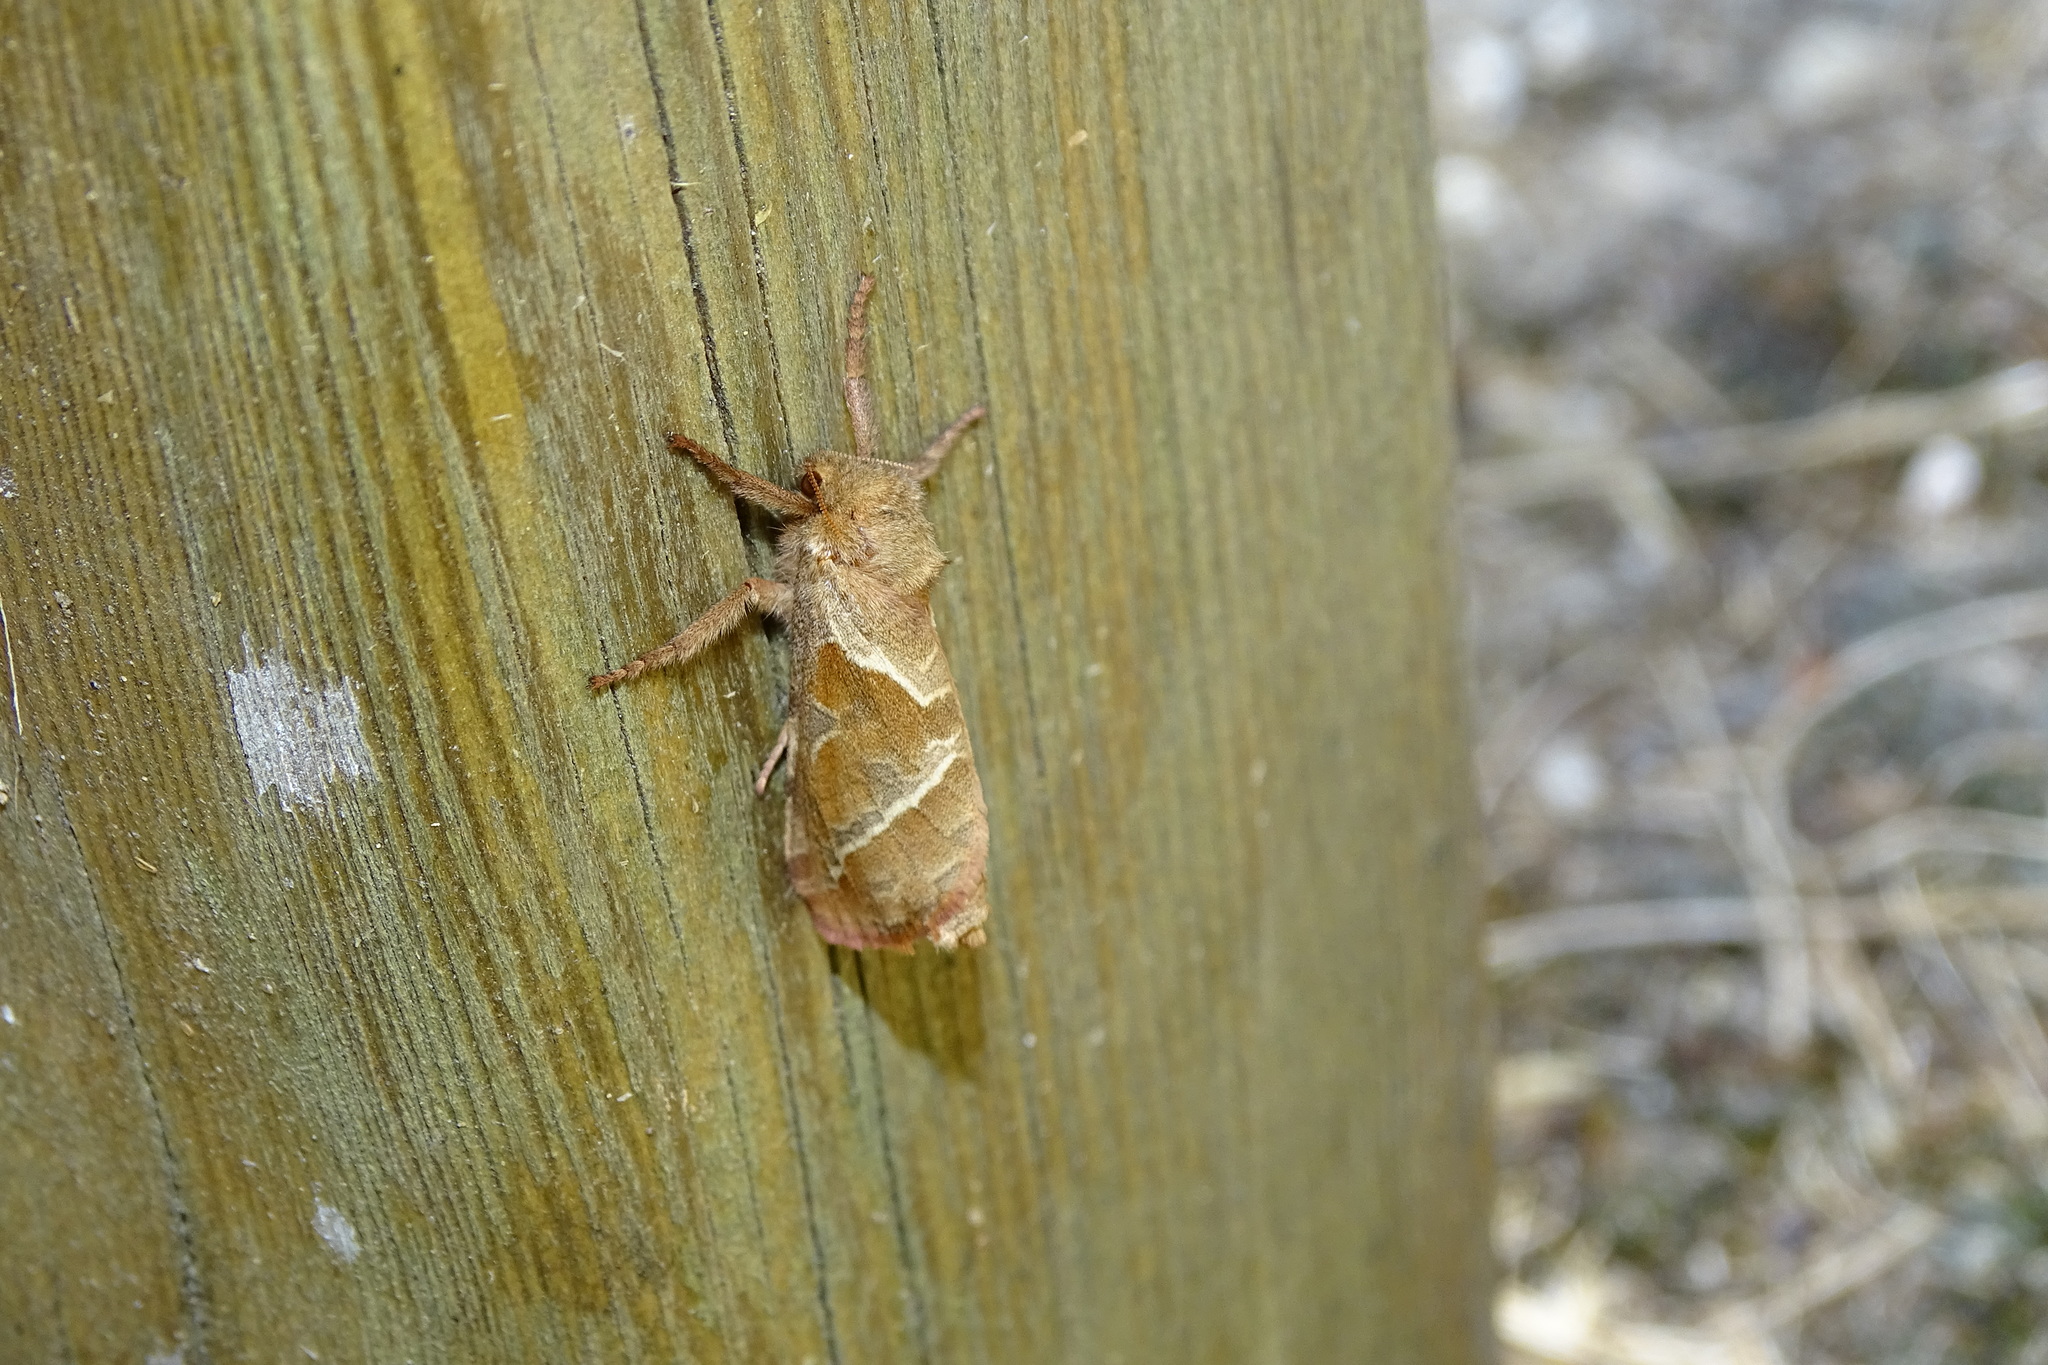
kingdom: Animalia
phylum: Arthropoda
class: Insecta
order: Lepidoptera
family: Hepialidae
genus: Triodia
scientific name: Triodia sylvina
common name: Orange swift
